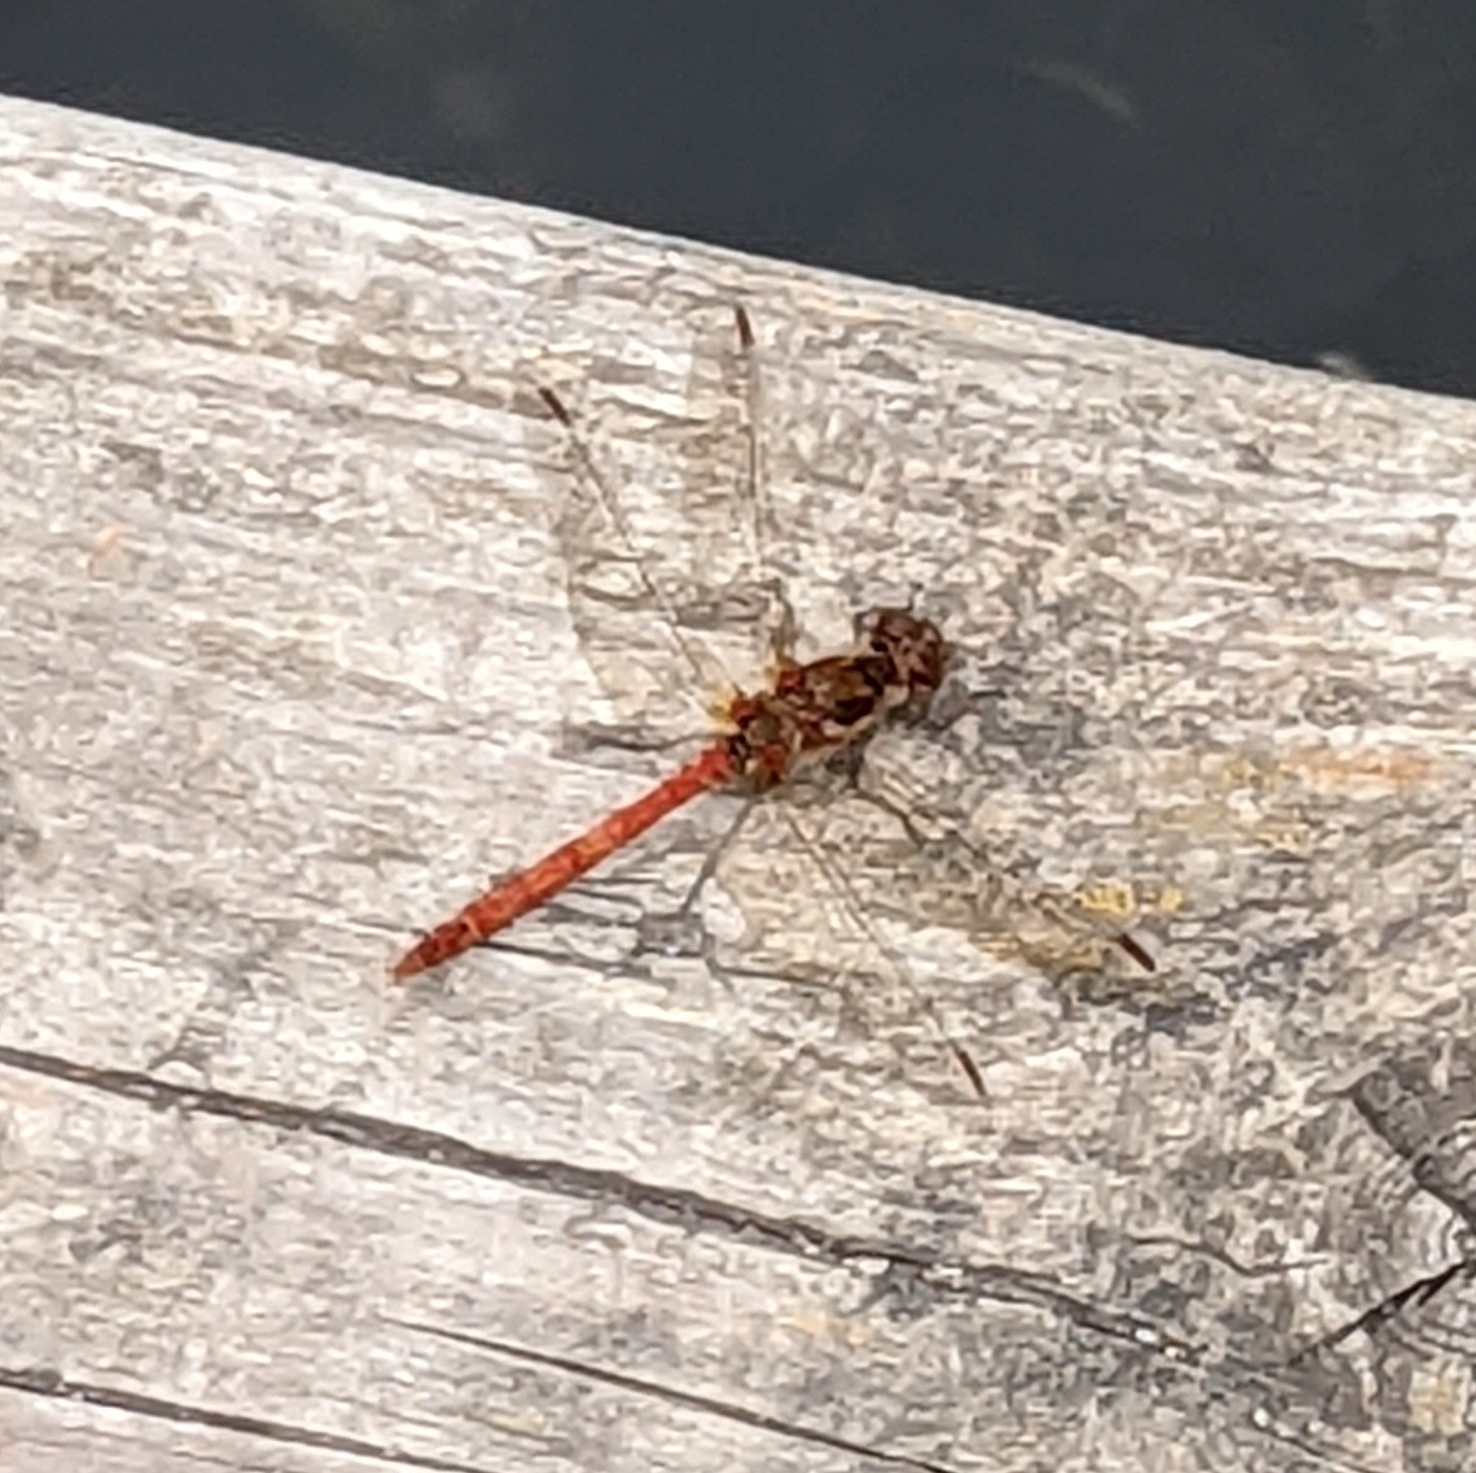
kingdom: Animalia
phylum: Arthropoda
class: Insecta
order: Odonata
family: Libellulidae
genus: Sympetrum
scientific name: Sympetrum striolatum
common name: Common darter
